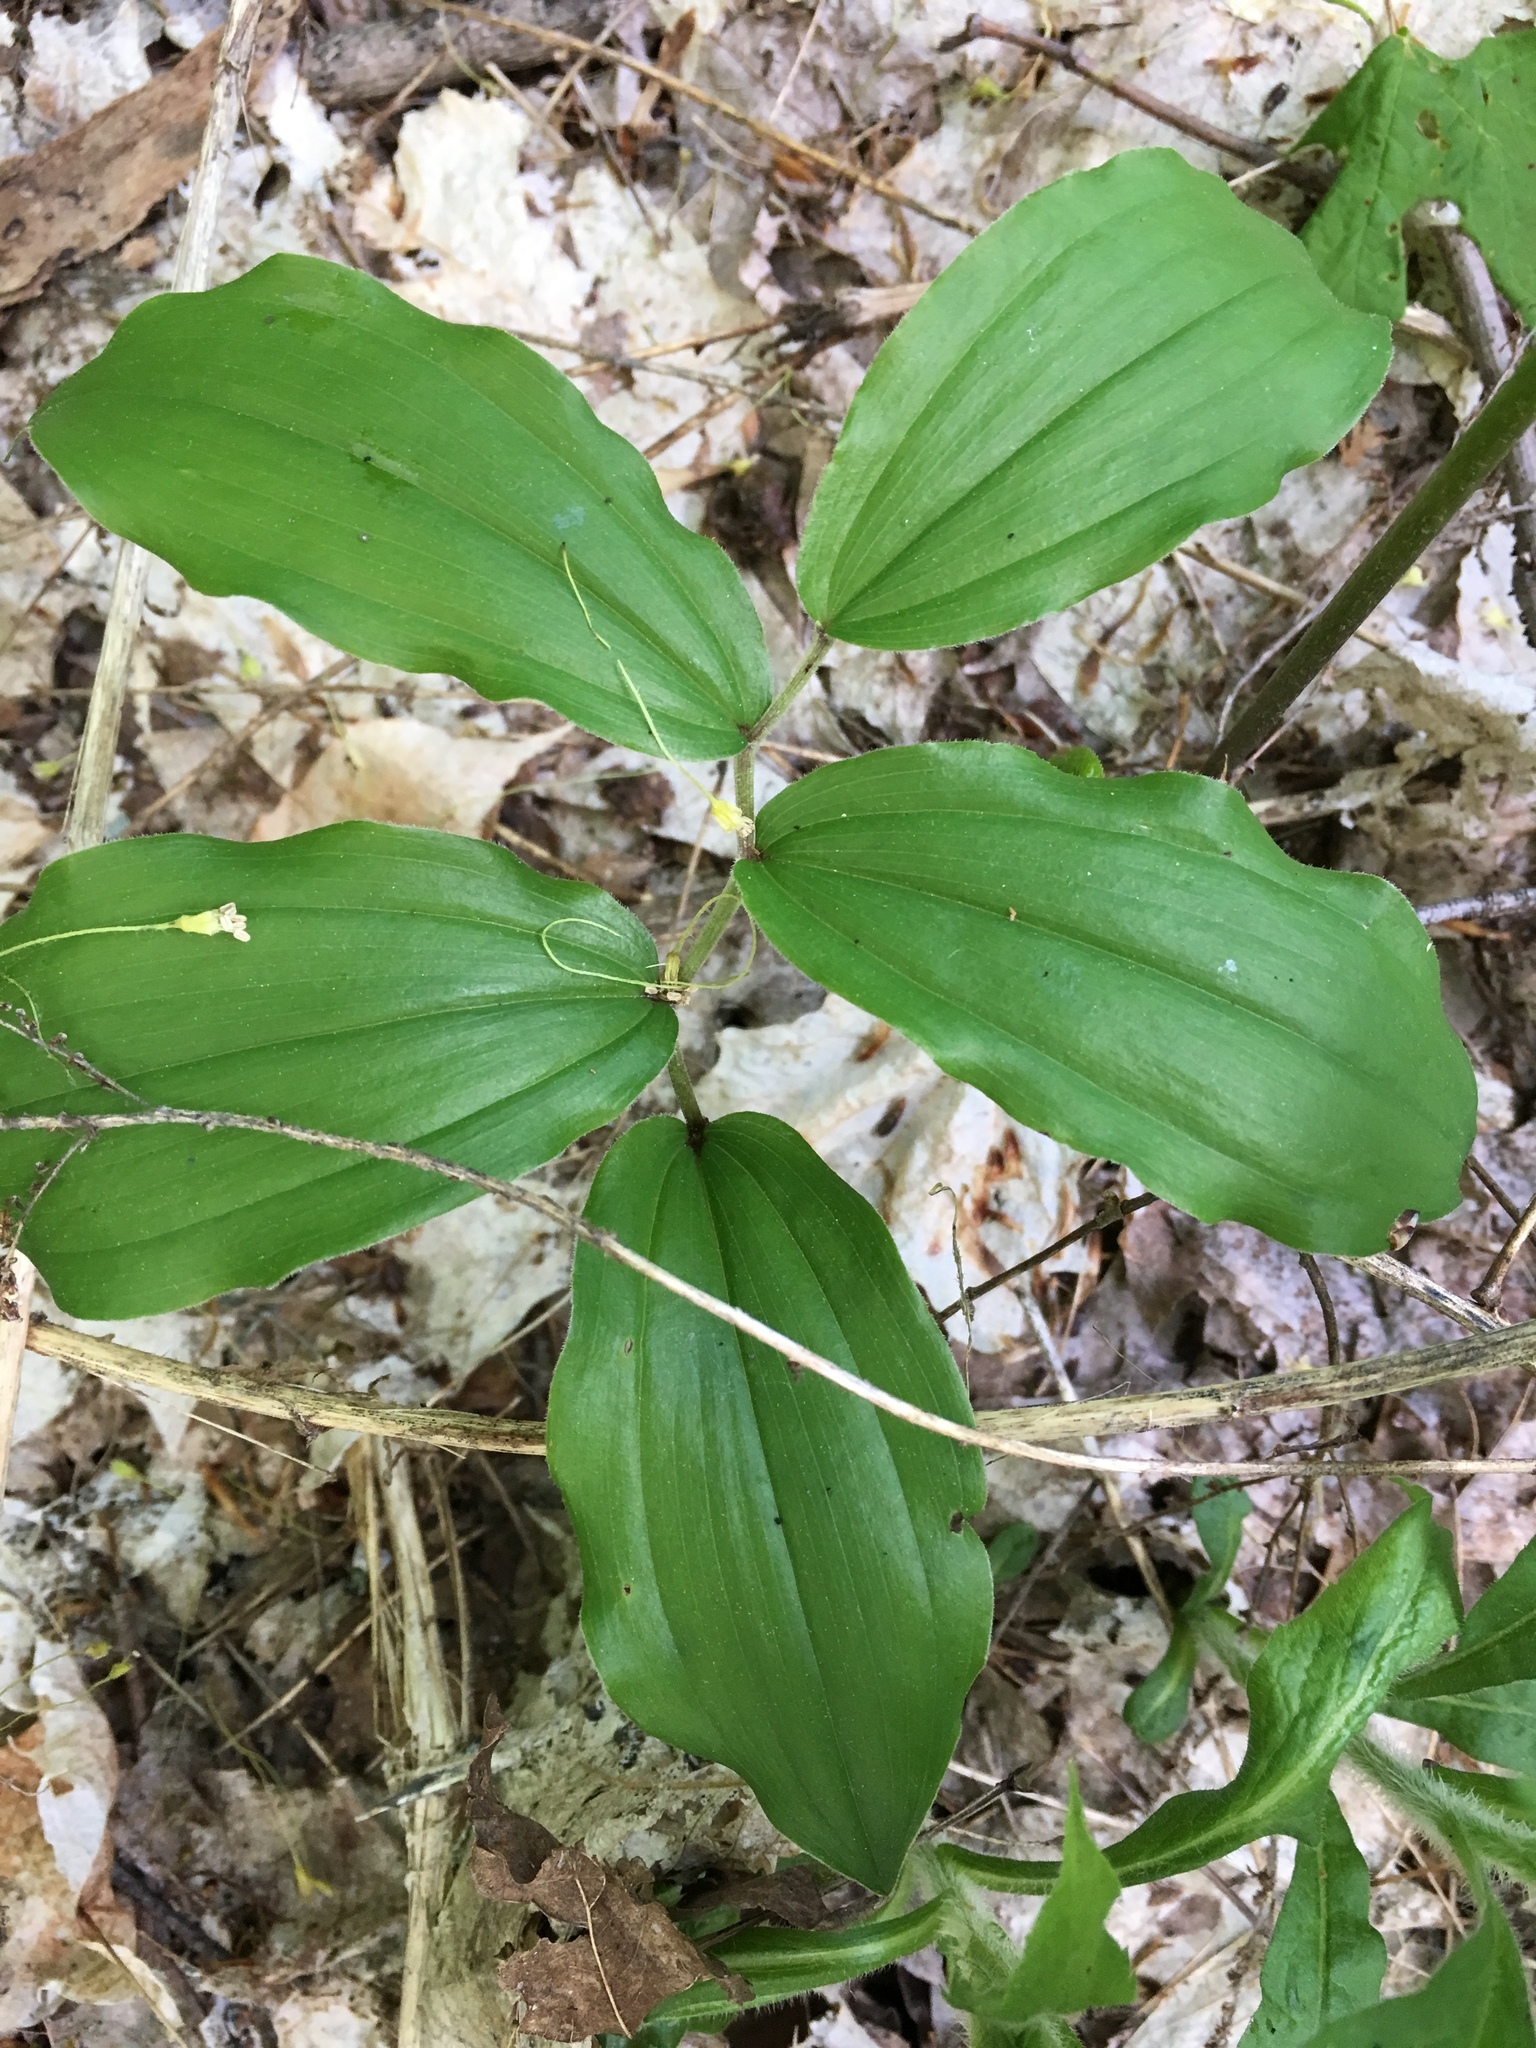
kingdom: Plantae
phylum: Tracheophyta
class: Liliopsida
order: Asparagales
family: Asparagaceae
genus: Maianthemum
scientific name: Maianthemum racemosum
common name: False spikenard
